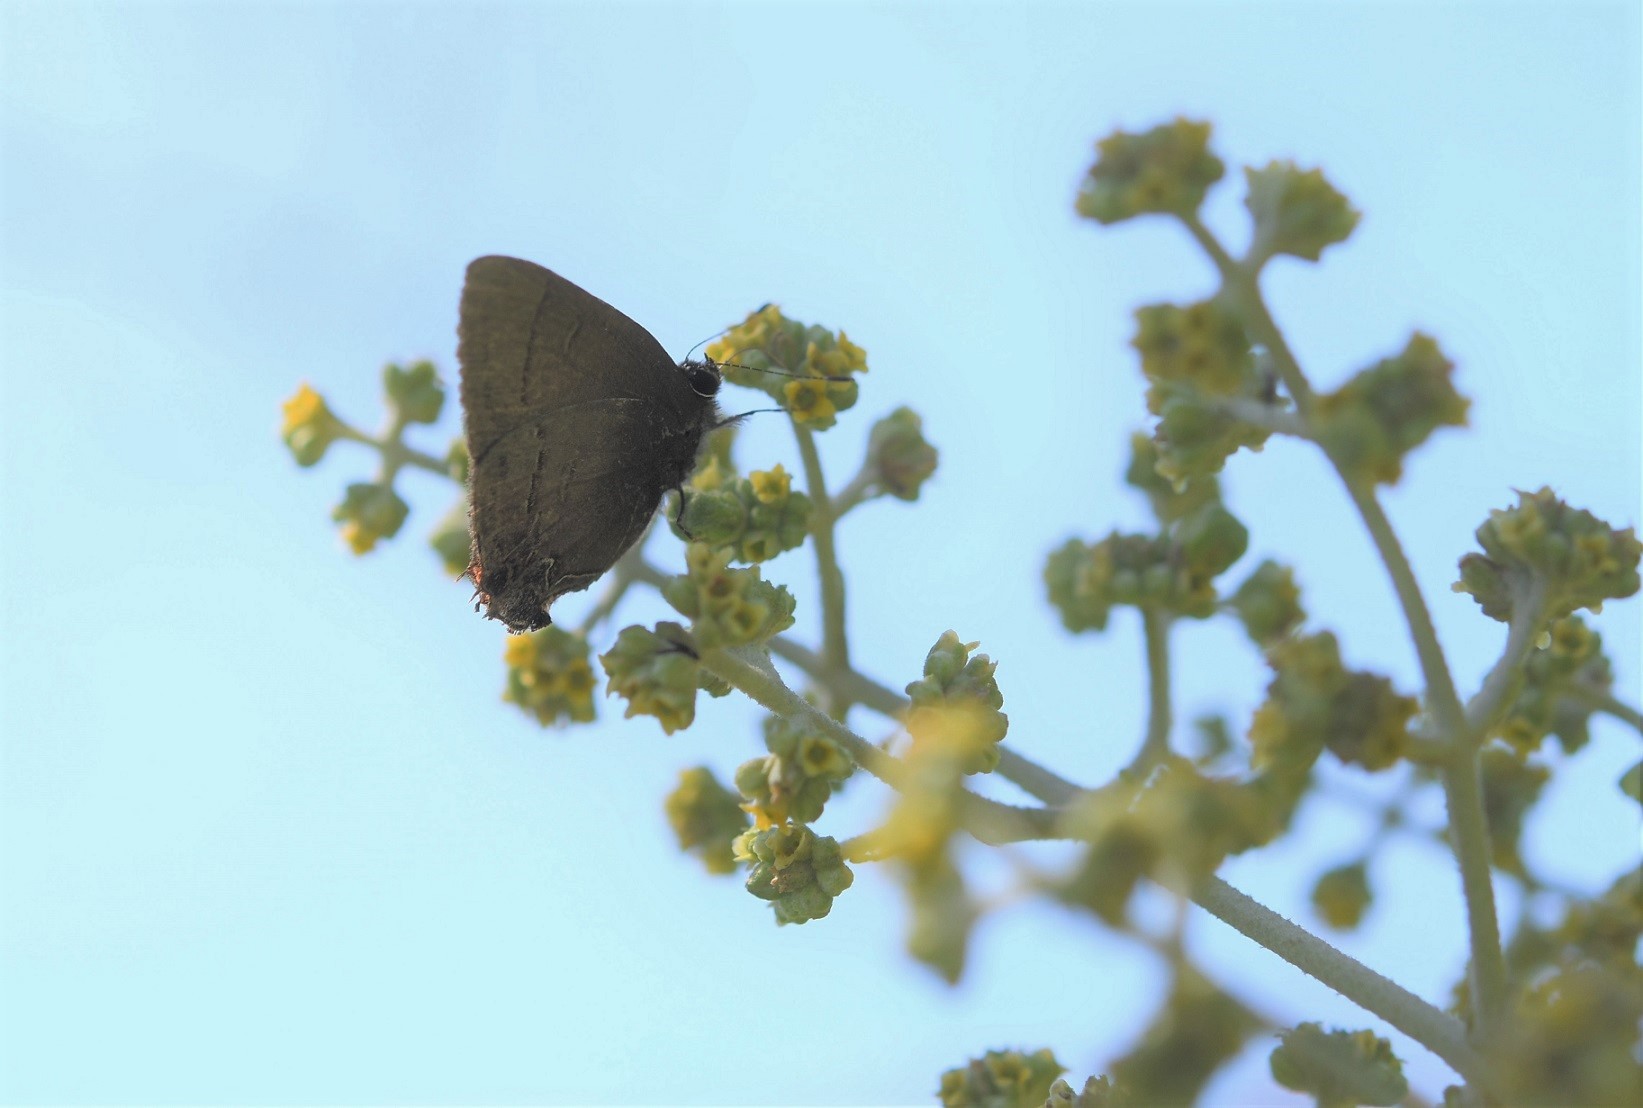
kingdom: Animalia
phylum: Arthropoda
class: Insecta
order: Lepidoptera
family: Lycaenidae
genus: Arzecla
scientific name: Arzecla sethon
